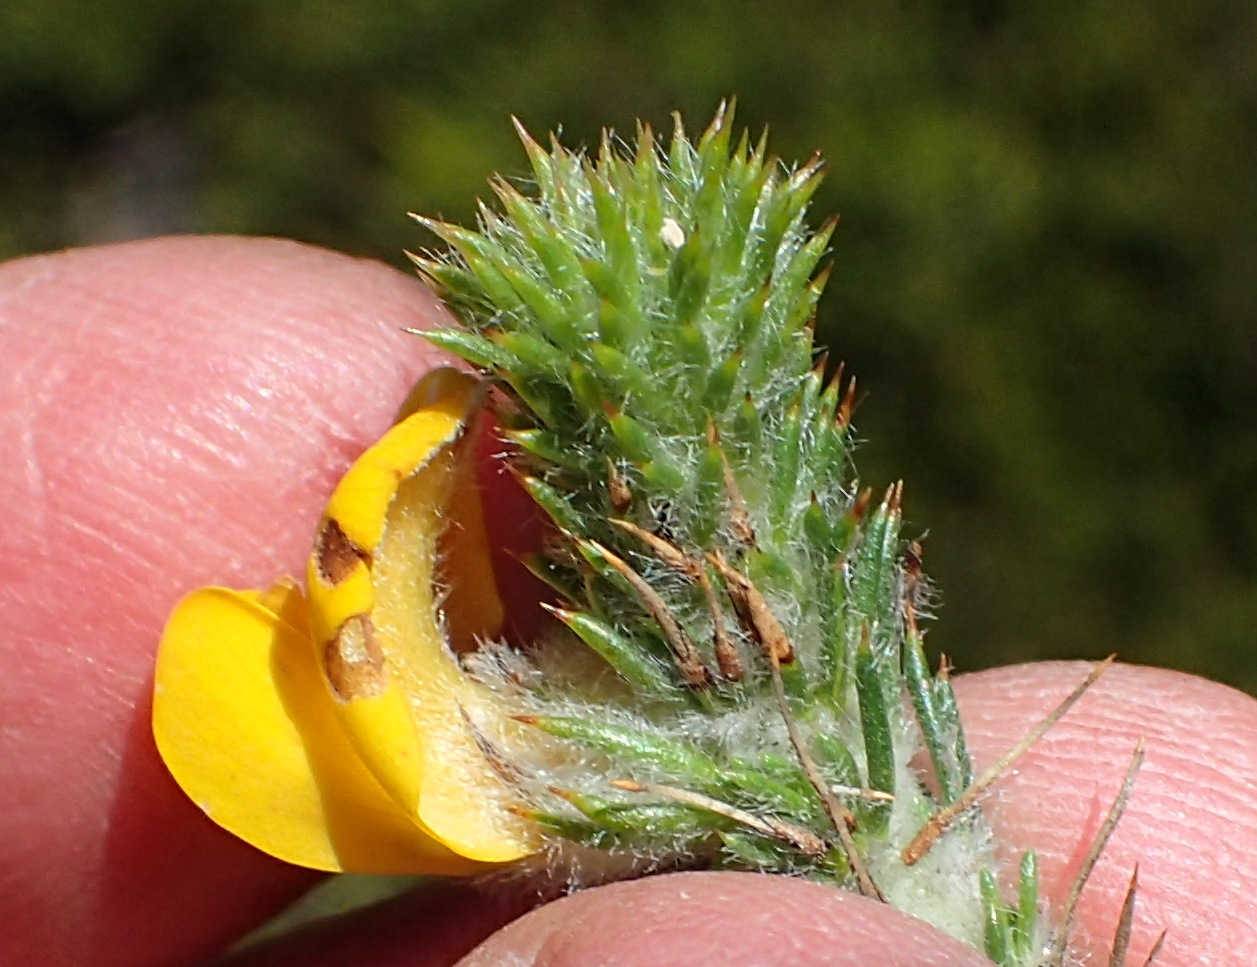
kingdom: Plantae
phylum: Tracheophyta
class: Magnoliopsida
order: Fabales
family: Fabaceae
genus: Aspalathus
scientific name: Aspalathus shawii
